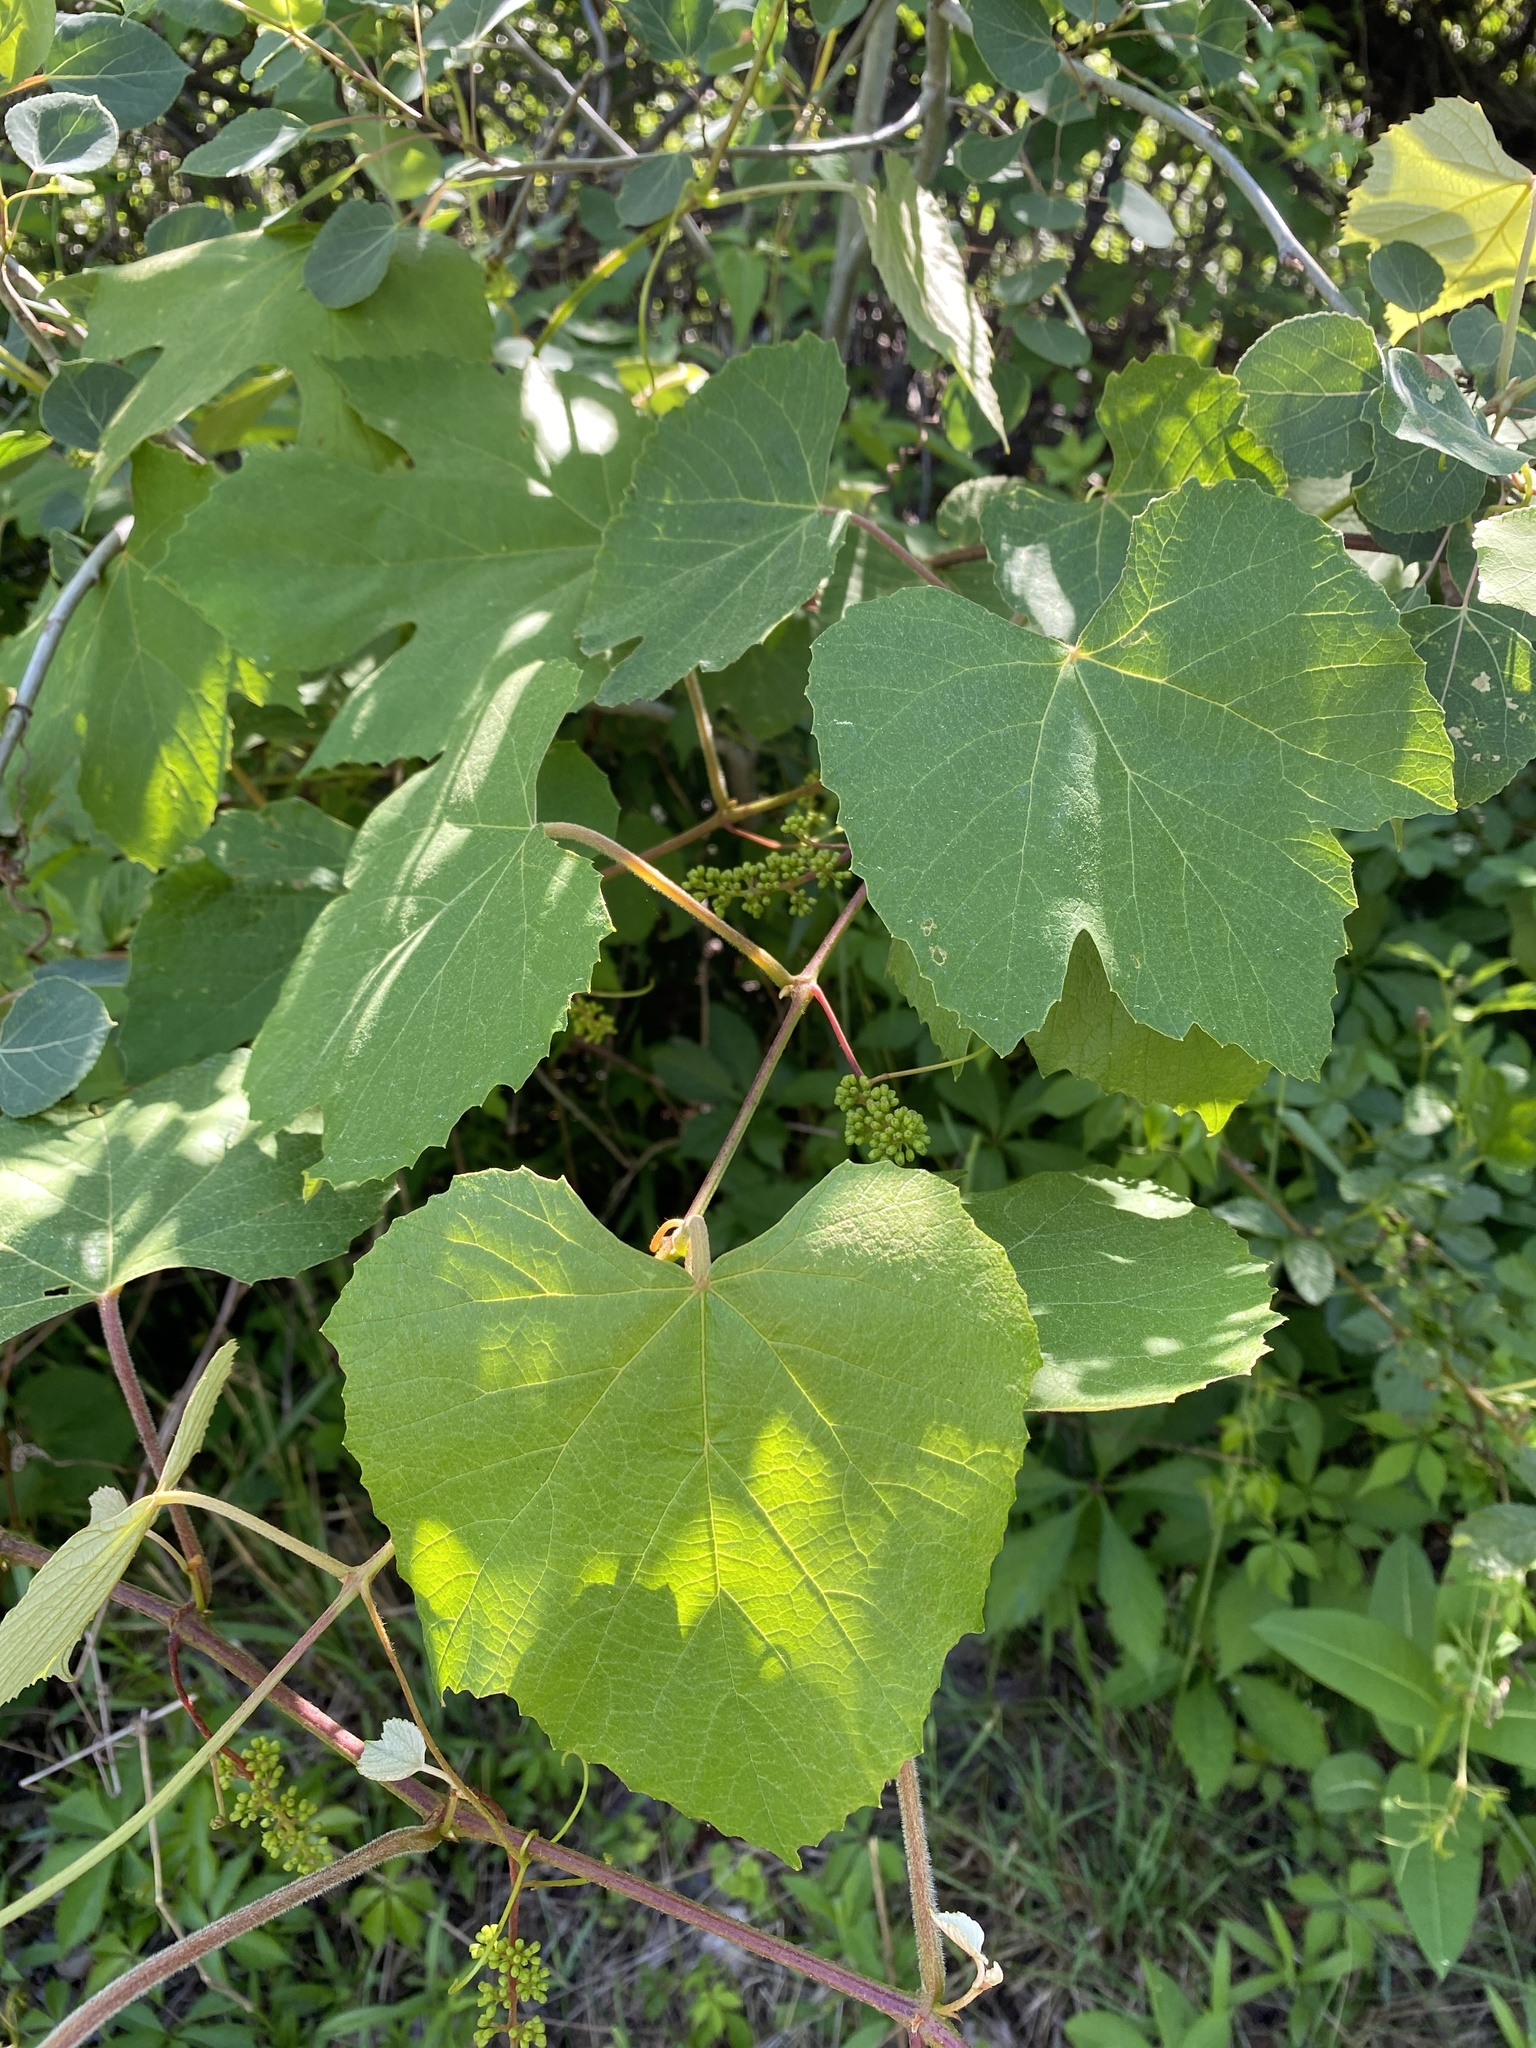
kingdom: Plantae
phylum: Tracheophyta
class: Magnoliopsida
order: Vitales
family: Vitaceae
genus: Vitis
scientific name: Vitis labrusca
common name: Concord grape
